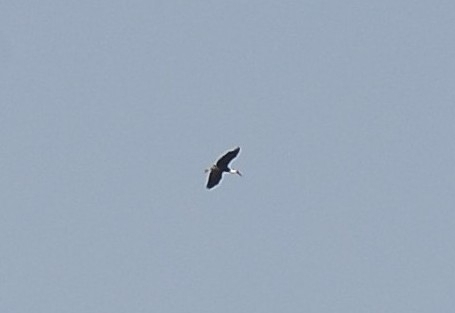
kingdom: Animalia
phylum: Chordata
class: Aves
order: Ciconiiformes
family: Ciconiidae
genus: Ciconia
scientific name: Ciconia episcopus
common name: Woolly-necked stork
